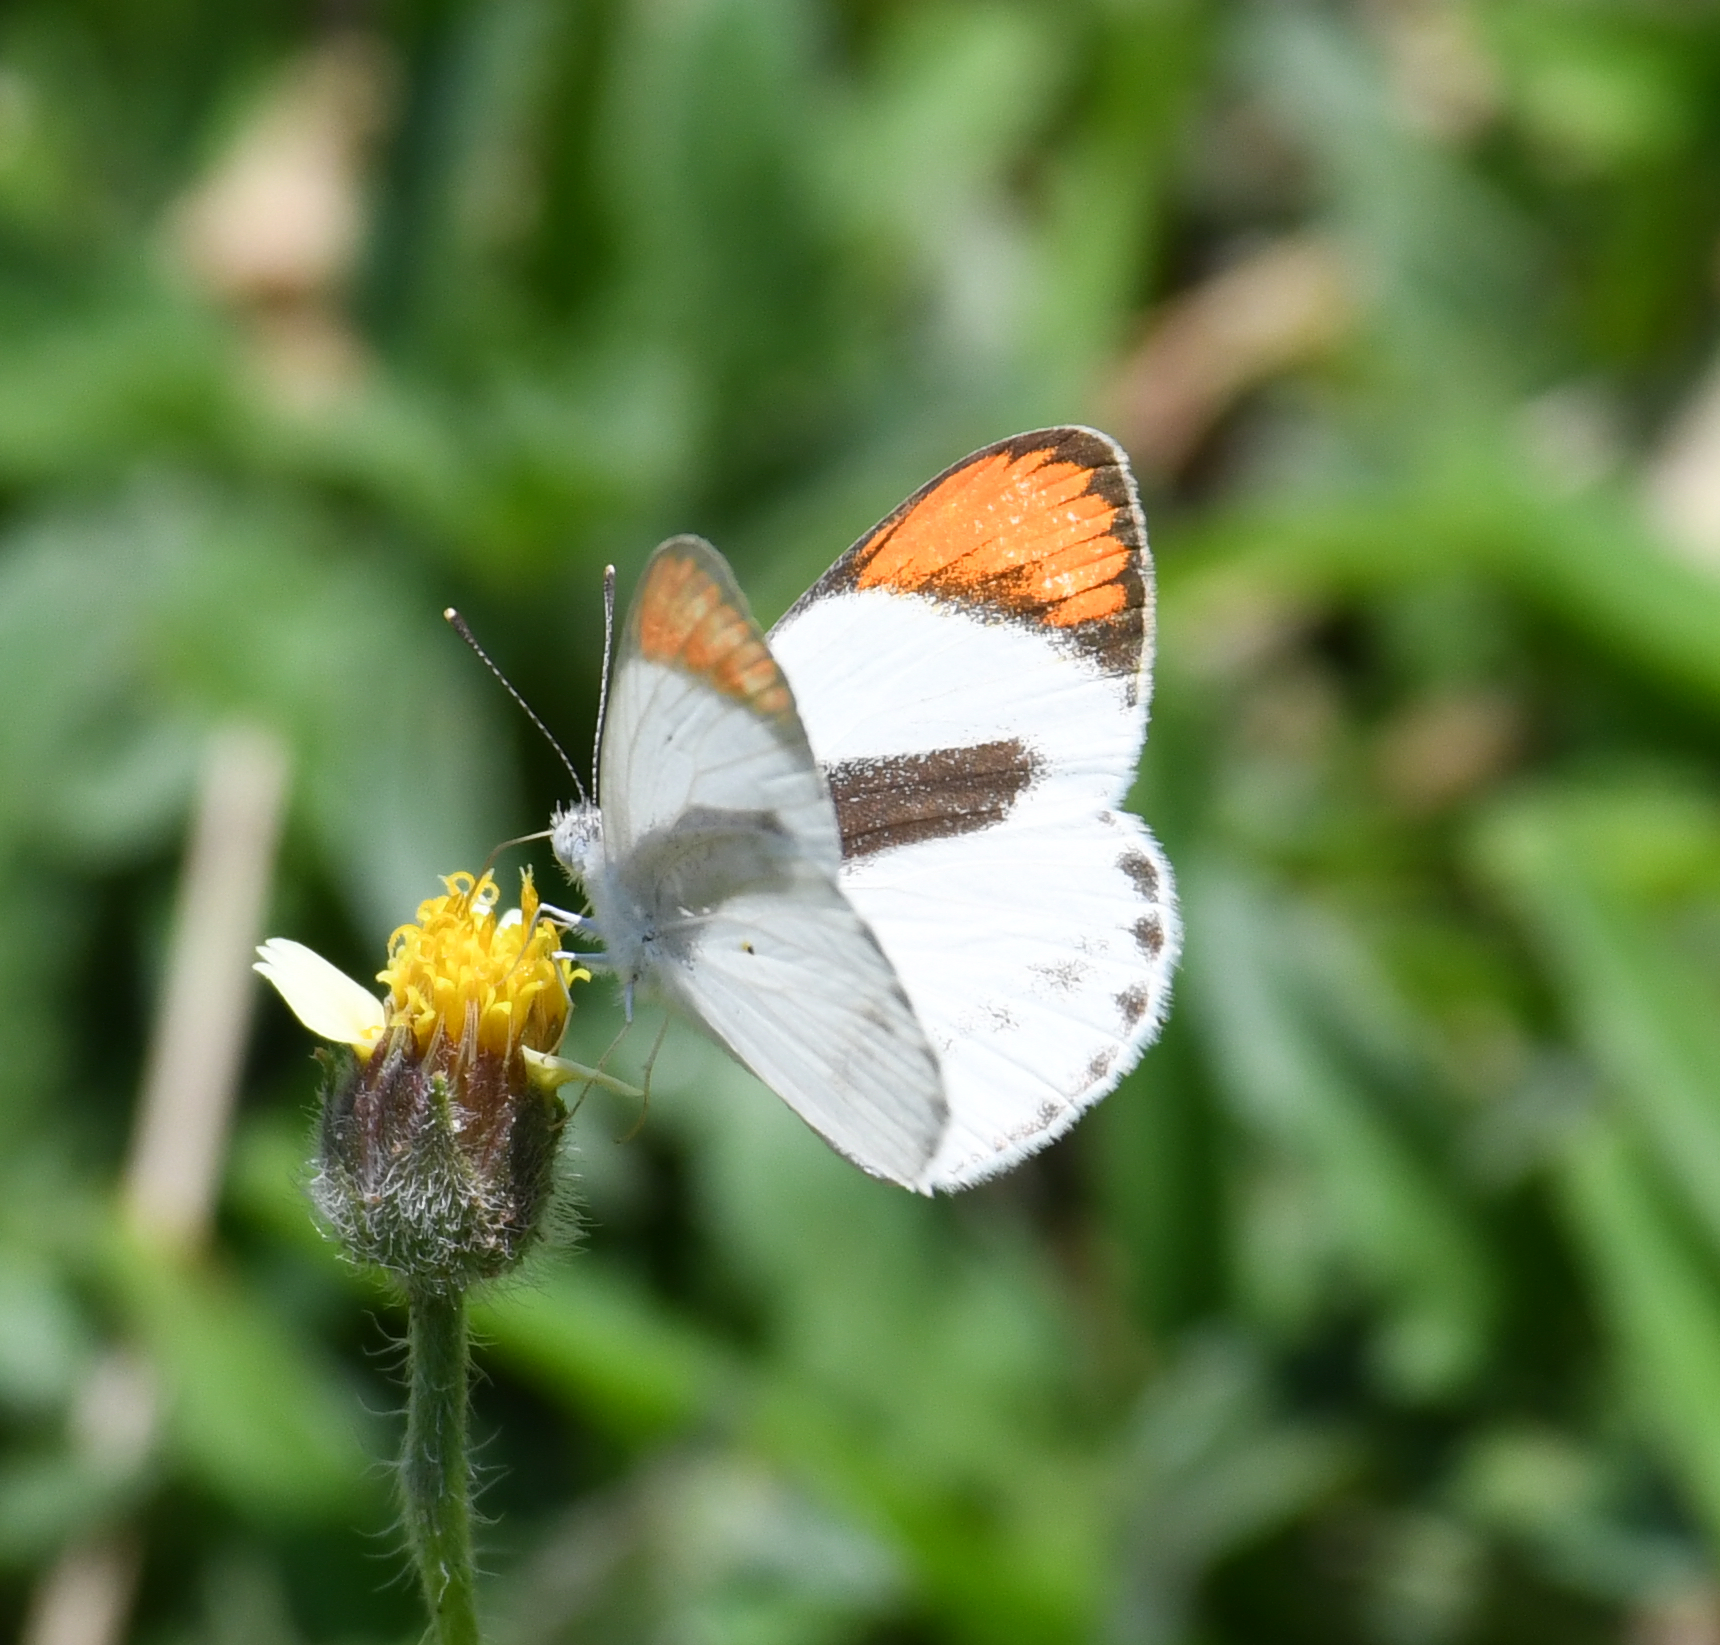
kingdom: Animalia
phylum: Arthropoda
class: Insecta
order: Lepidoptera
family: Pieridae
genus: Colotis
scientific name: Colotis euippe
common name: Round-winged orange tip
